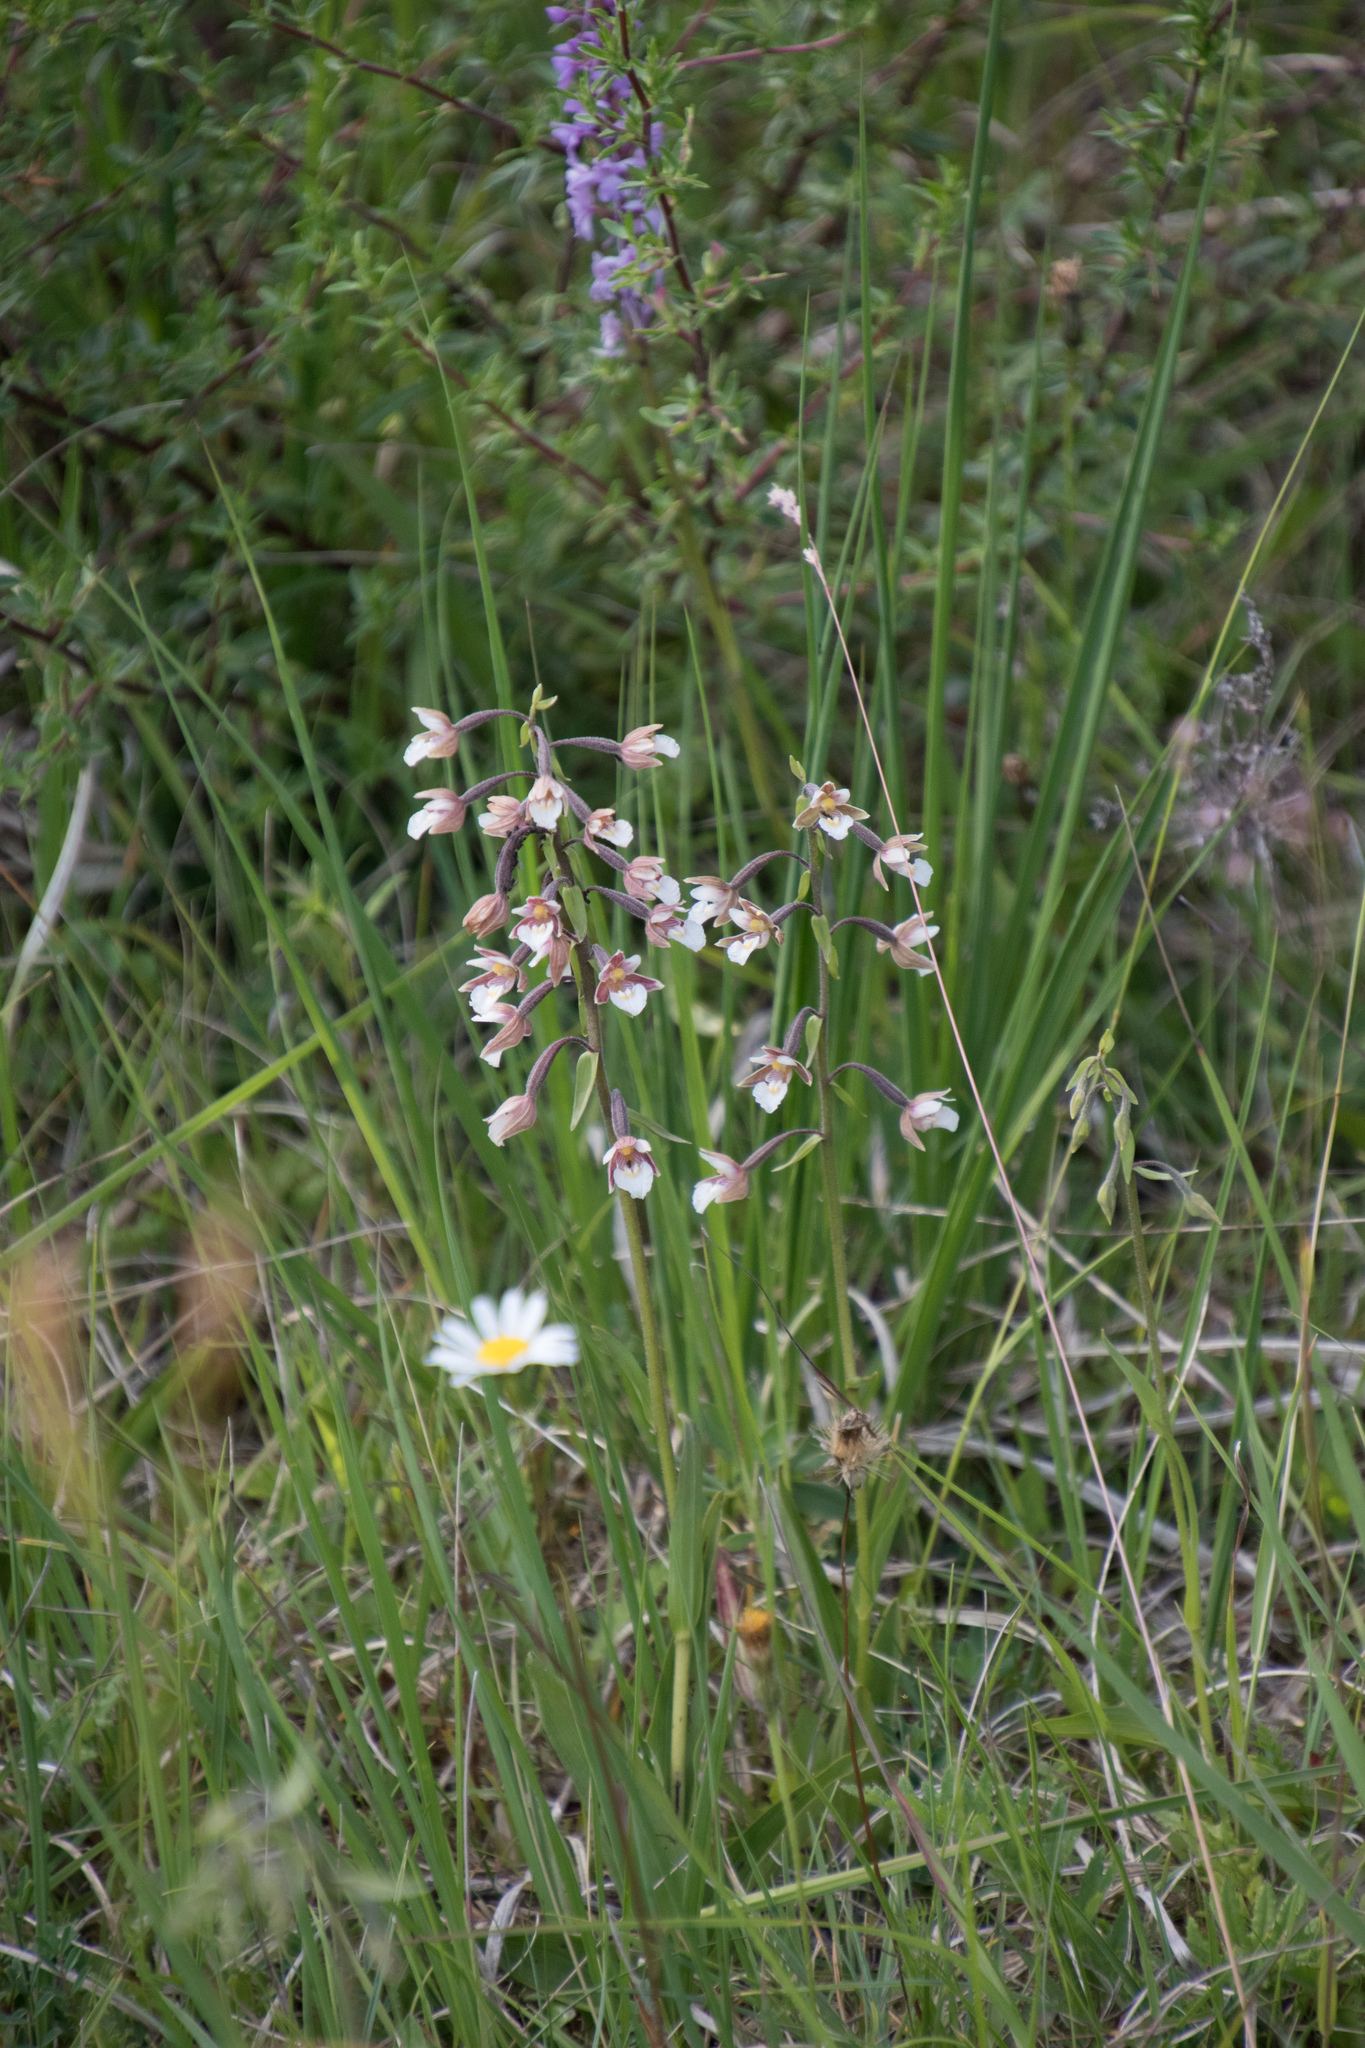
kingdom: Plantae
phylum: Tracheophyta
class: Liliopsida
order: Asparagales
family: Orchidaceae
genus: Epipactis
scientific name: Epipactis palustris
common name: Marsh helleborine
